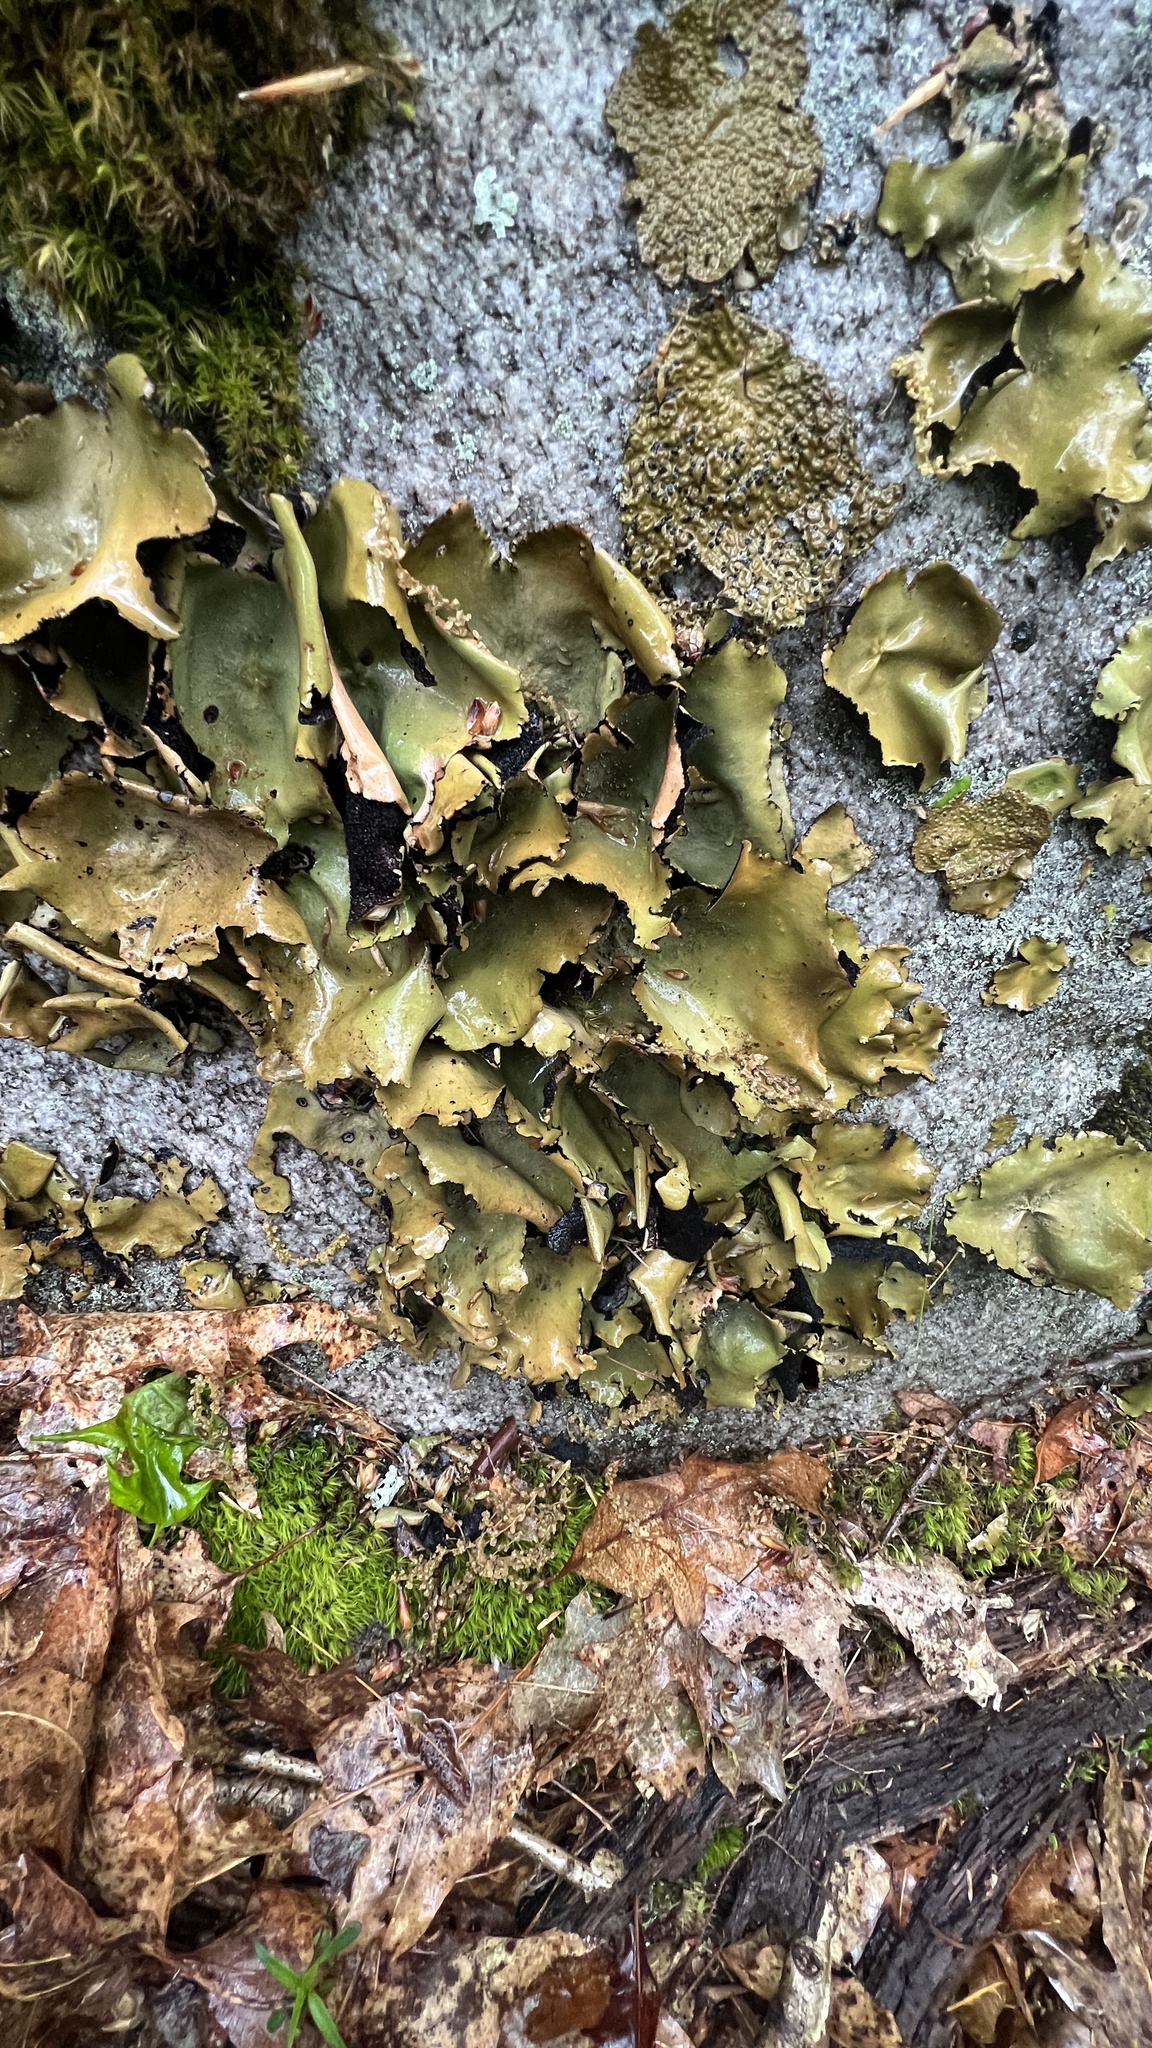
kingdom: Fungi
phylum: Ascomycota
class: Lecanoromycetes
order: Umbilicariales
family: Umbilicariaceae
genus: Umbilicaria
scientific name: Umbilicaria mammulata
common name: Smooth rock tripe
